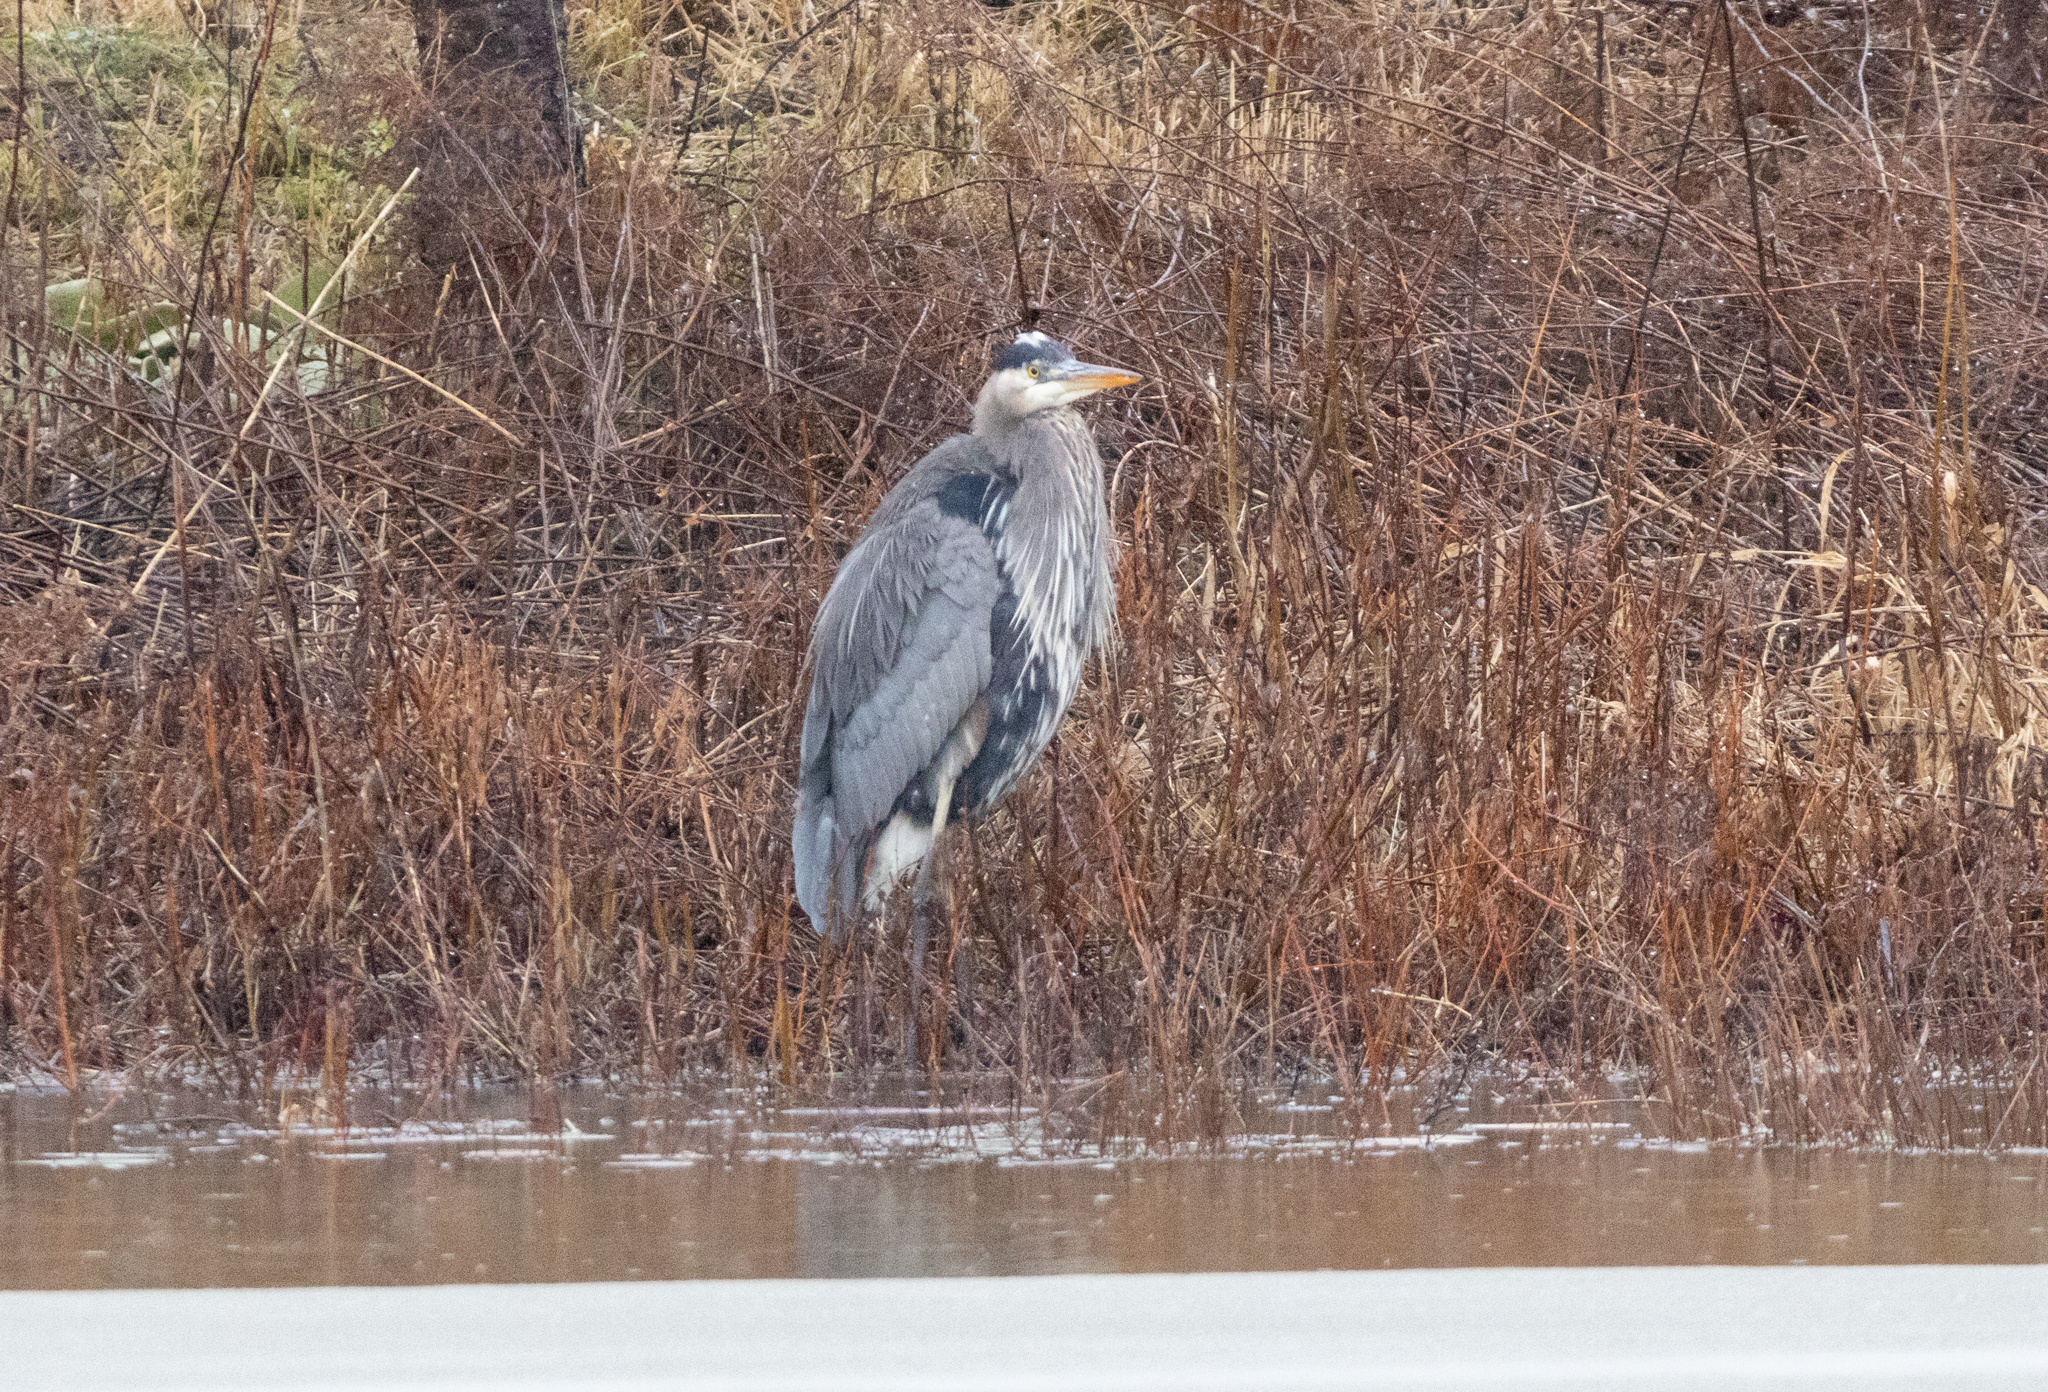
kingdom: Animalia
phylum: Chordata
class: Aves
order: Pelecaniformes
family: Ardeidae
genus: Ardea
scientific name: Ardea herodias
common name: Great blue heron
